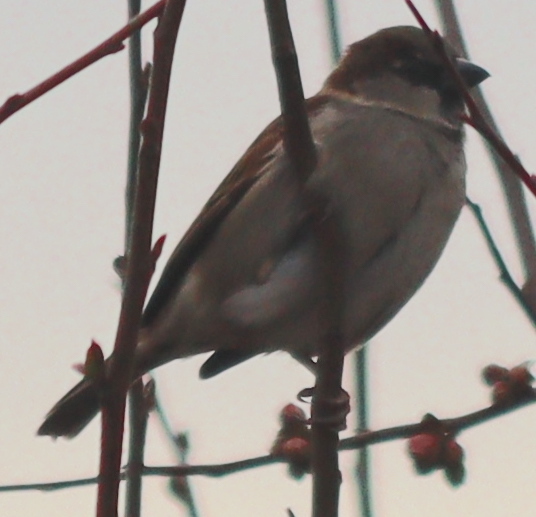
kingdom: Animalia
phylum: Chordata
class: Aves
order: Passeriformes
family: Passeridae
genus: Passer
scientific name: Passer domesticus
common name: House sparrow
